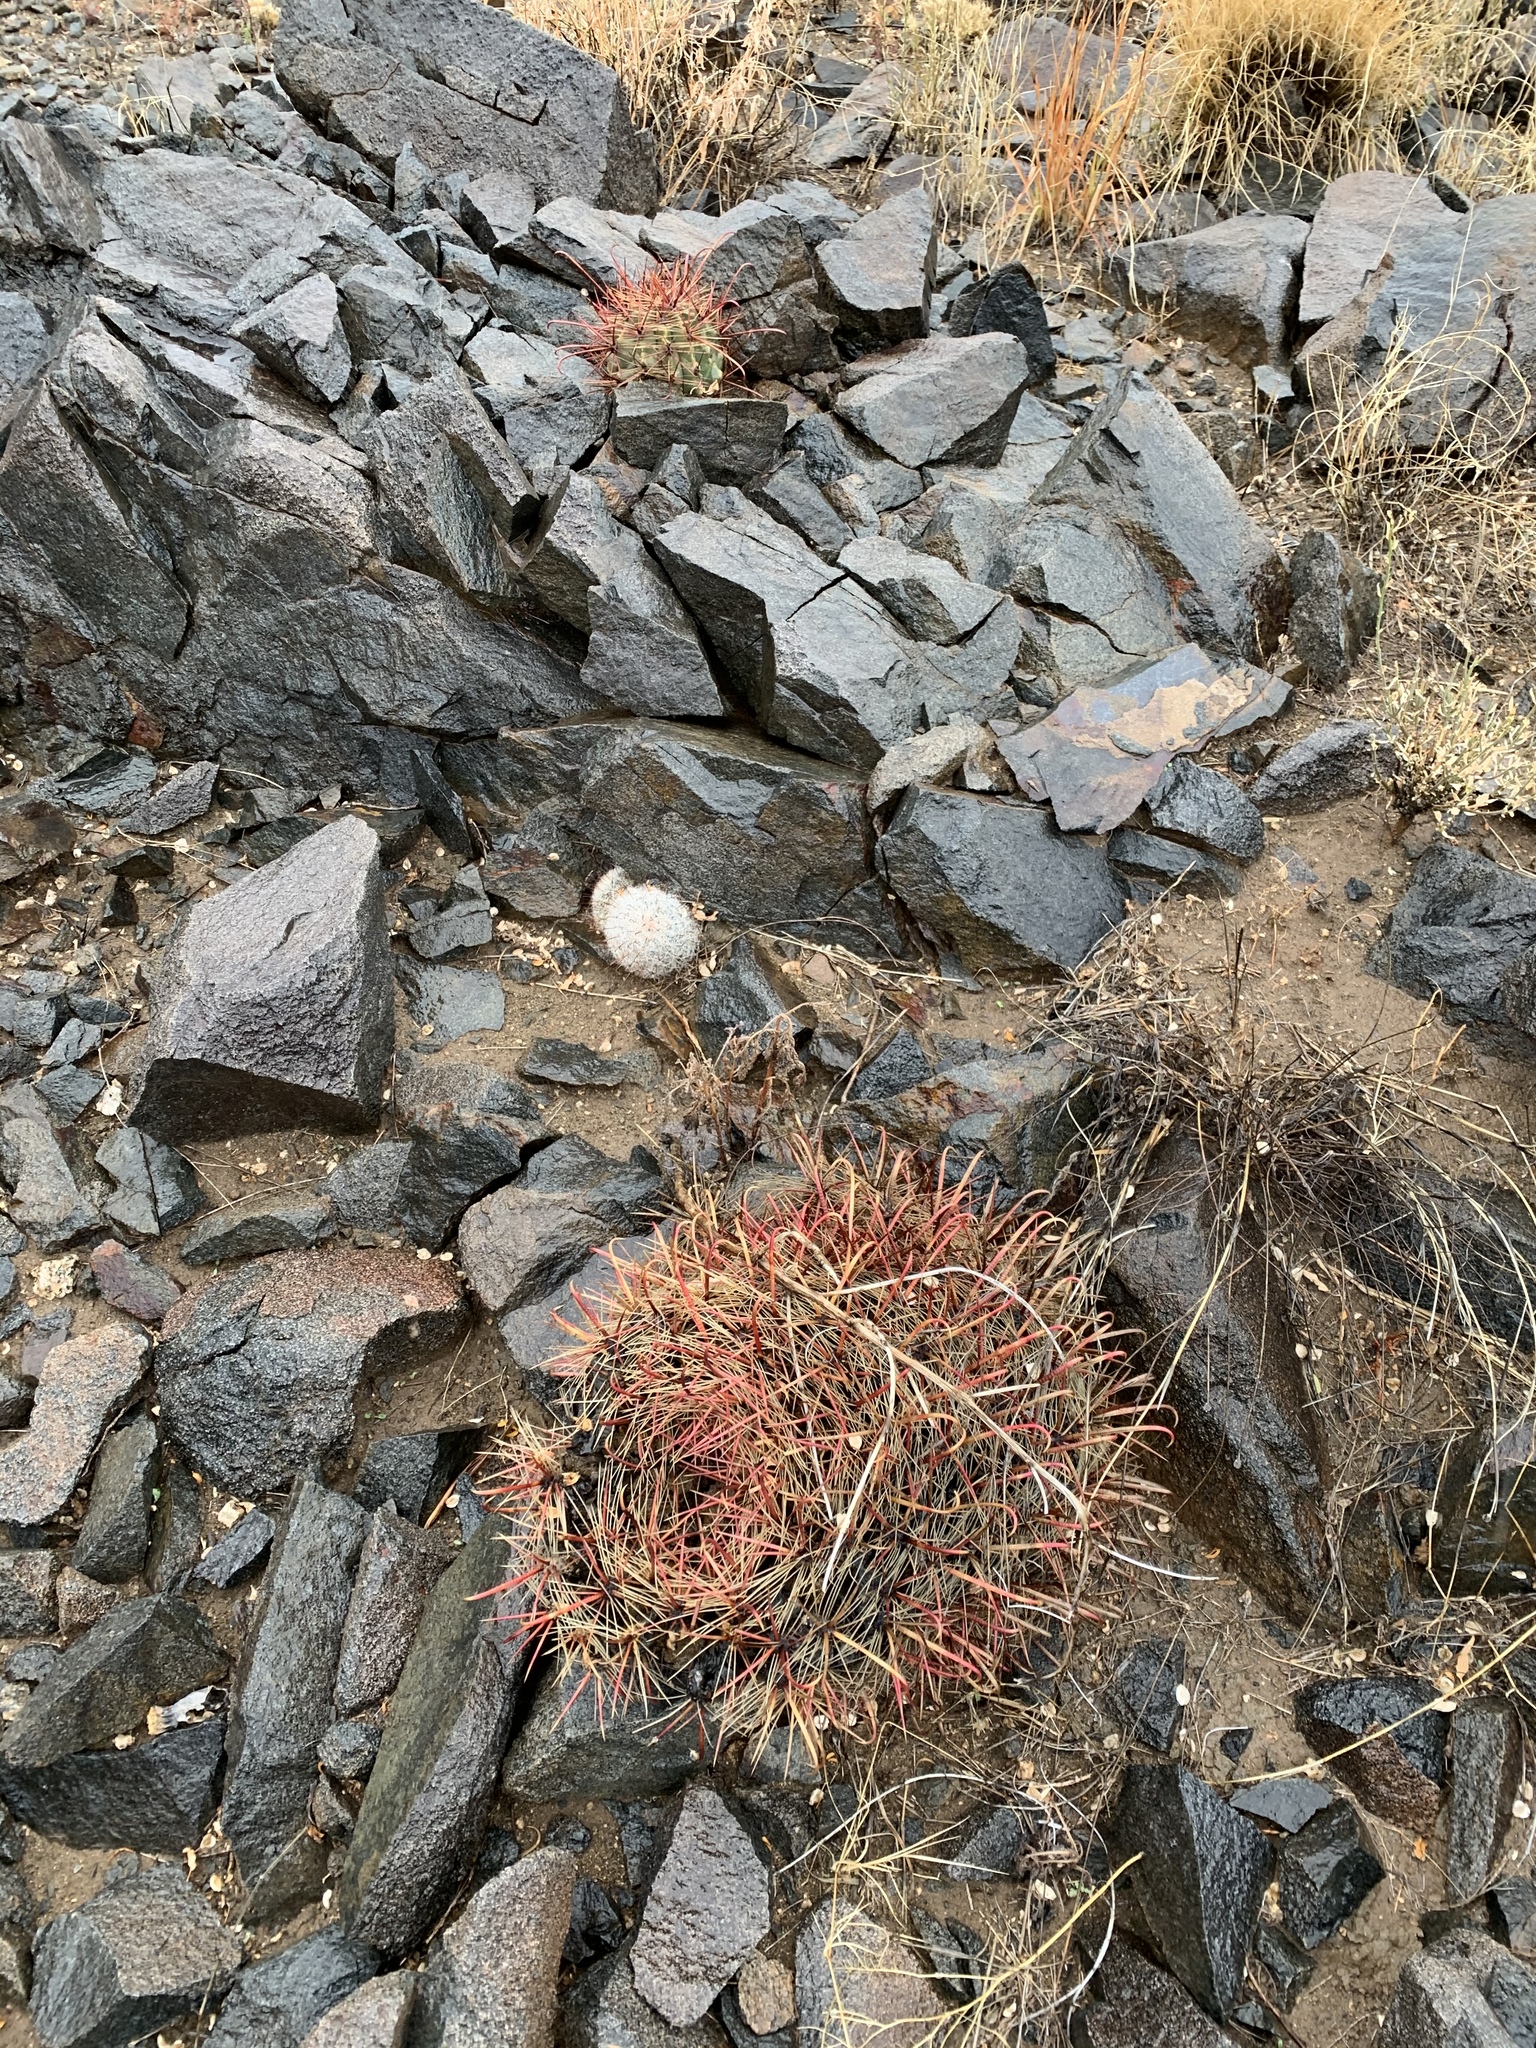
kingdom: Plantae
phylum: Tracheophyta
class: Magnoliopsida
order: Caryophyllales
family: Cactaceae
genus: Ferocactus
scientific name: Ferocactus wislizeni
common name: Candy barrel cactus
